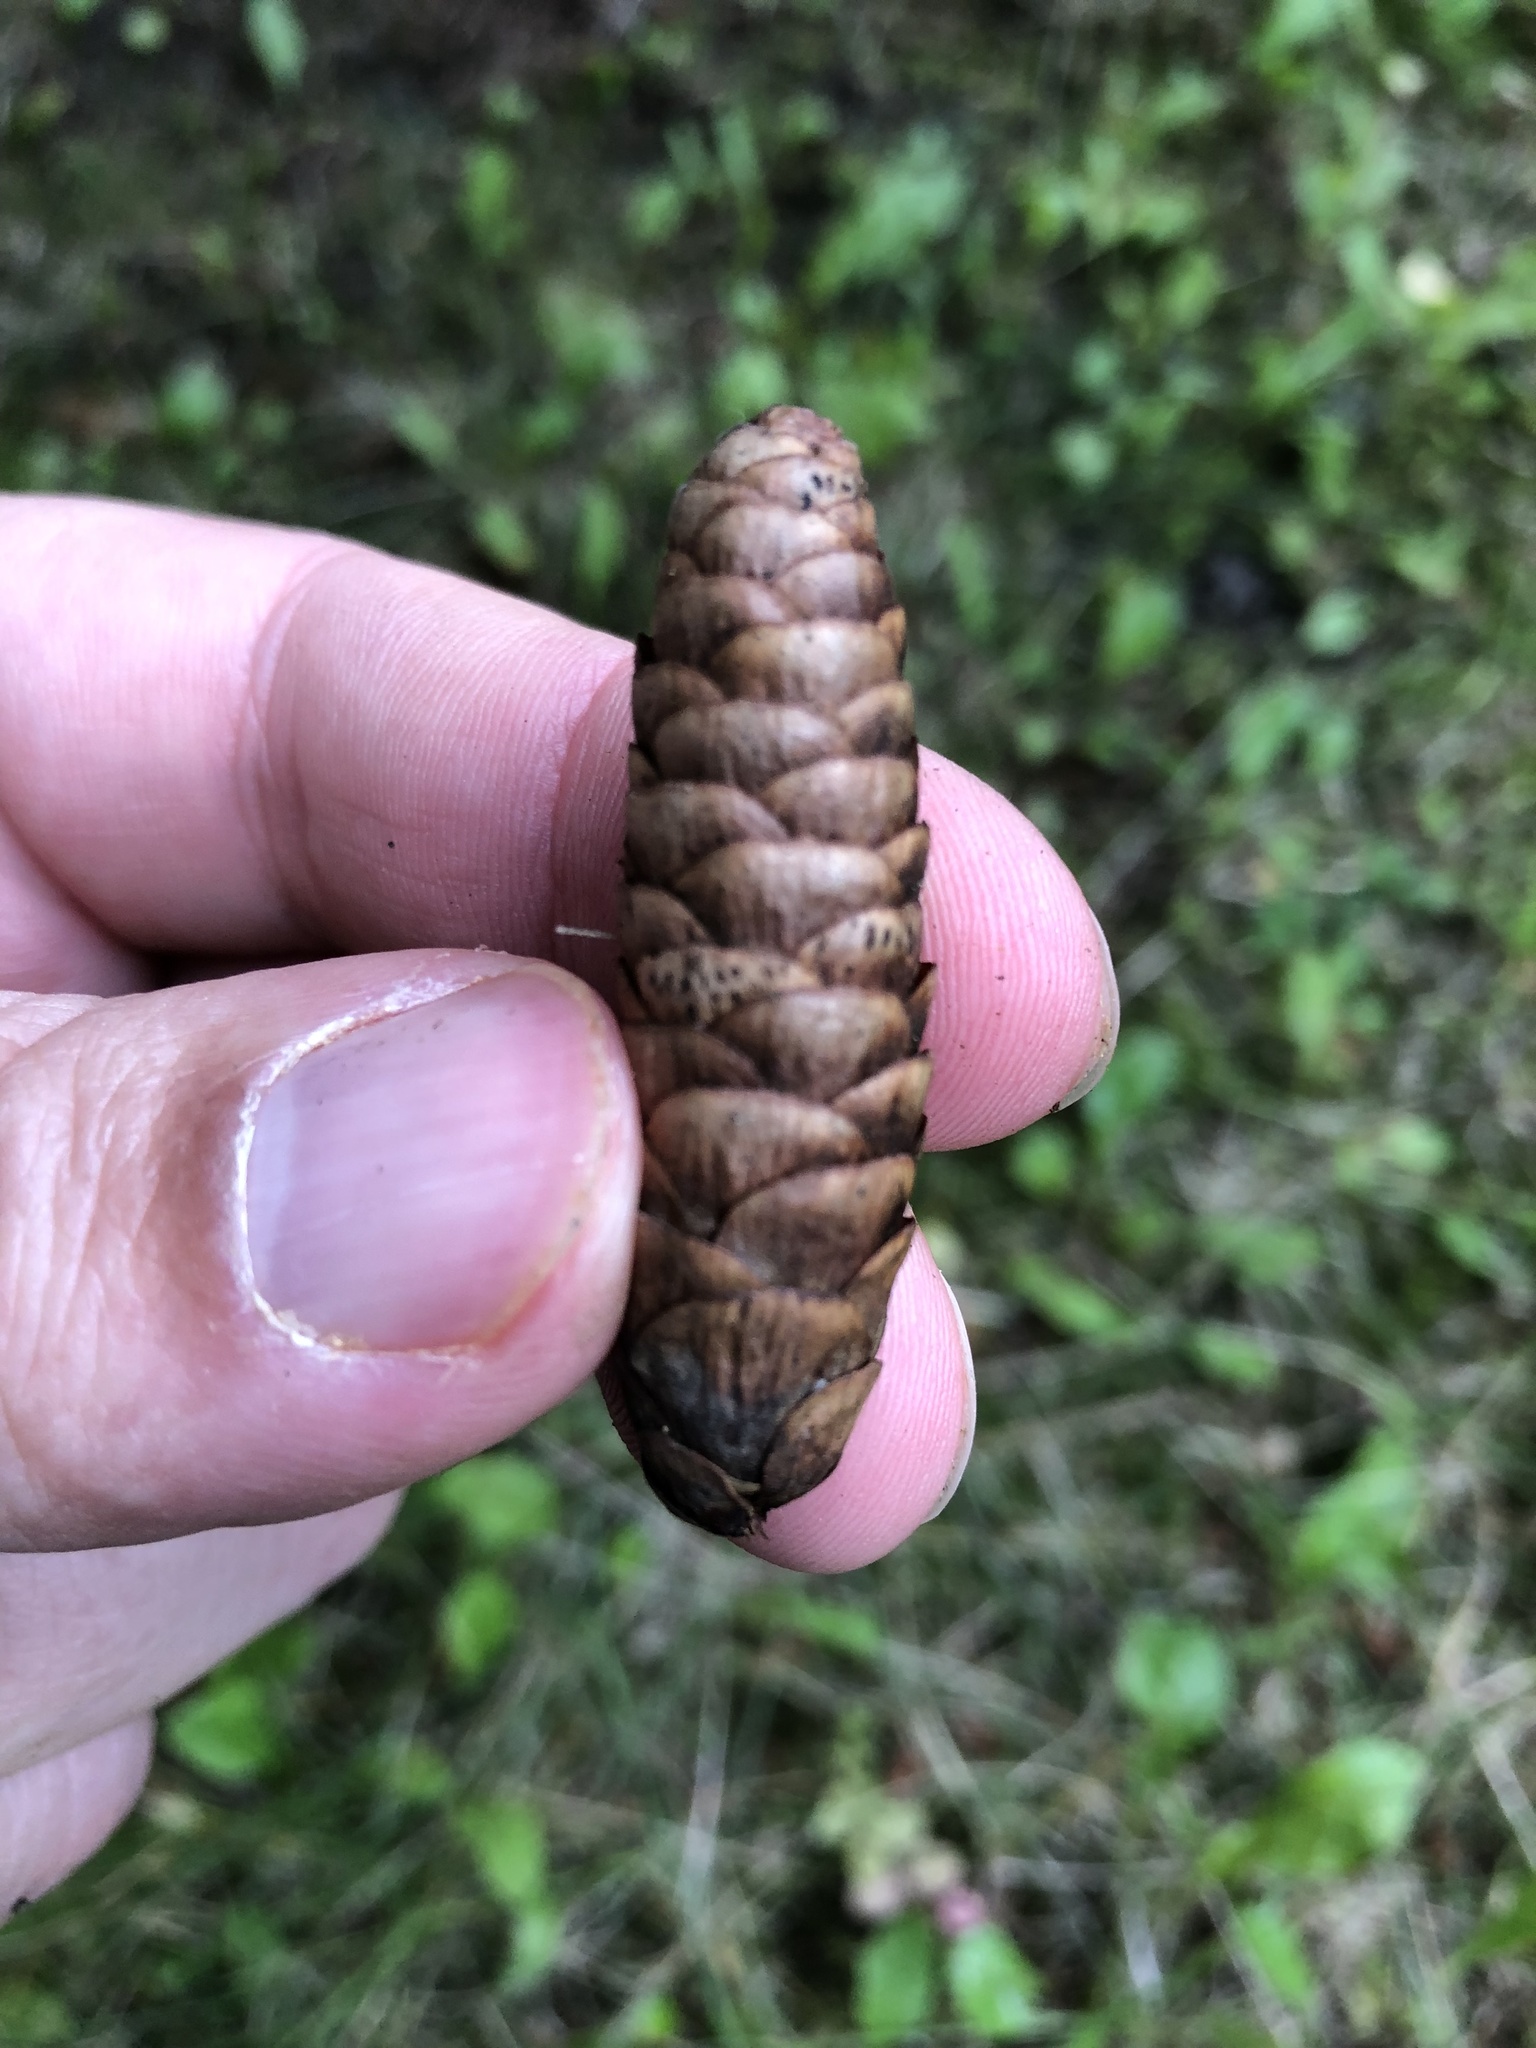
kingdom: Plantae
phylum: Tracheophyta
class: Pinopsida
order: Pinales
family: Pinaceae
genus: Picea
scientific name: Picea glauca
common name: White spruce
